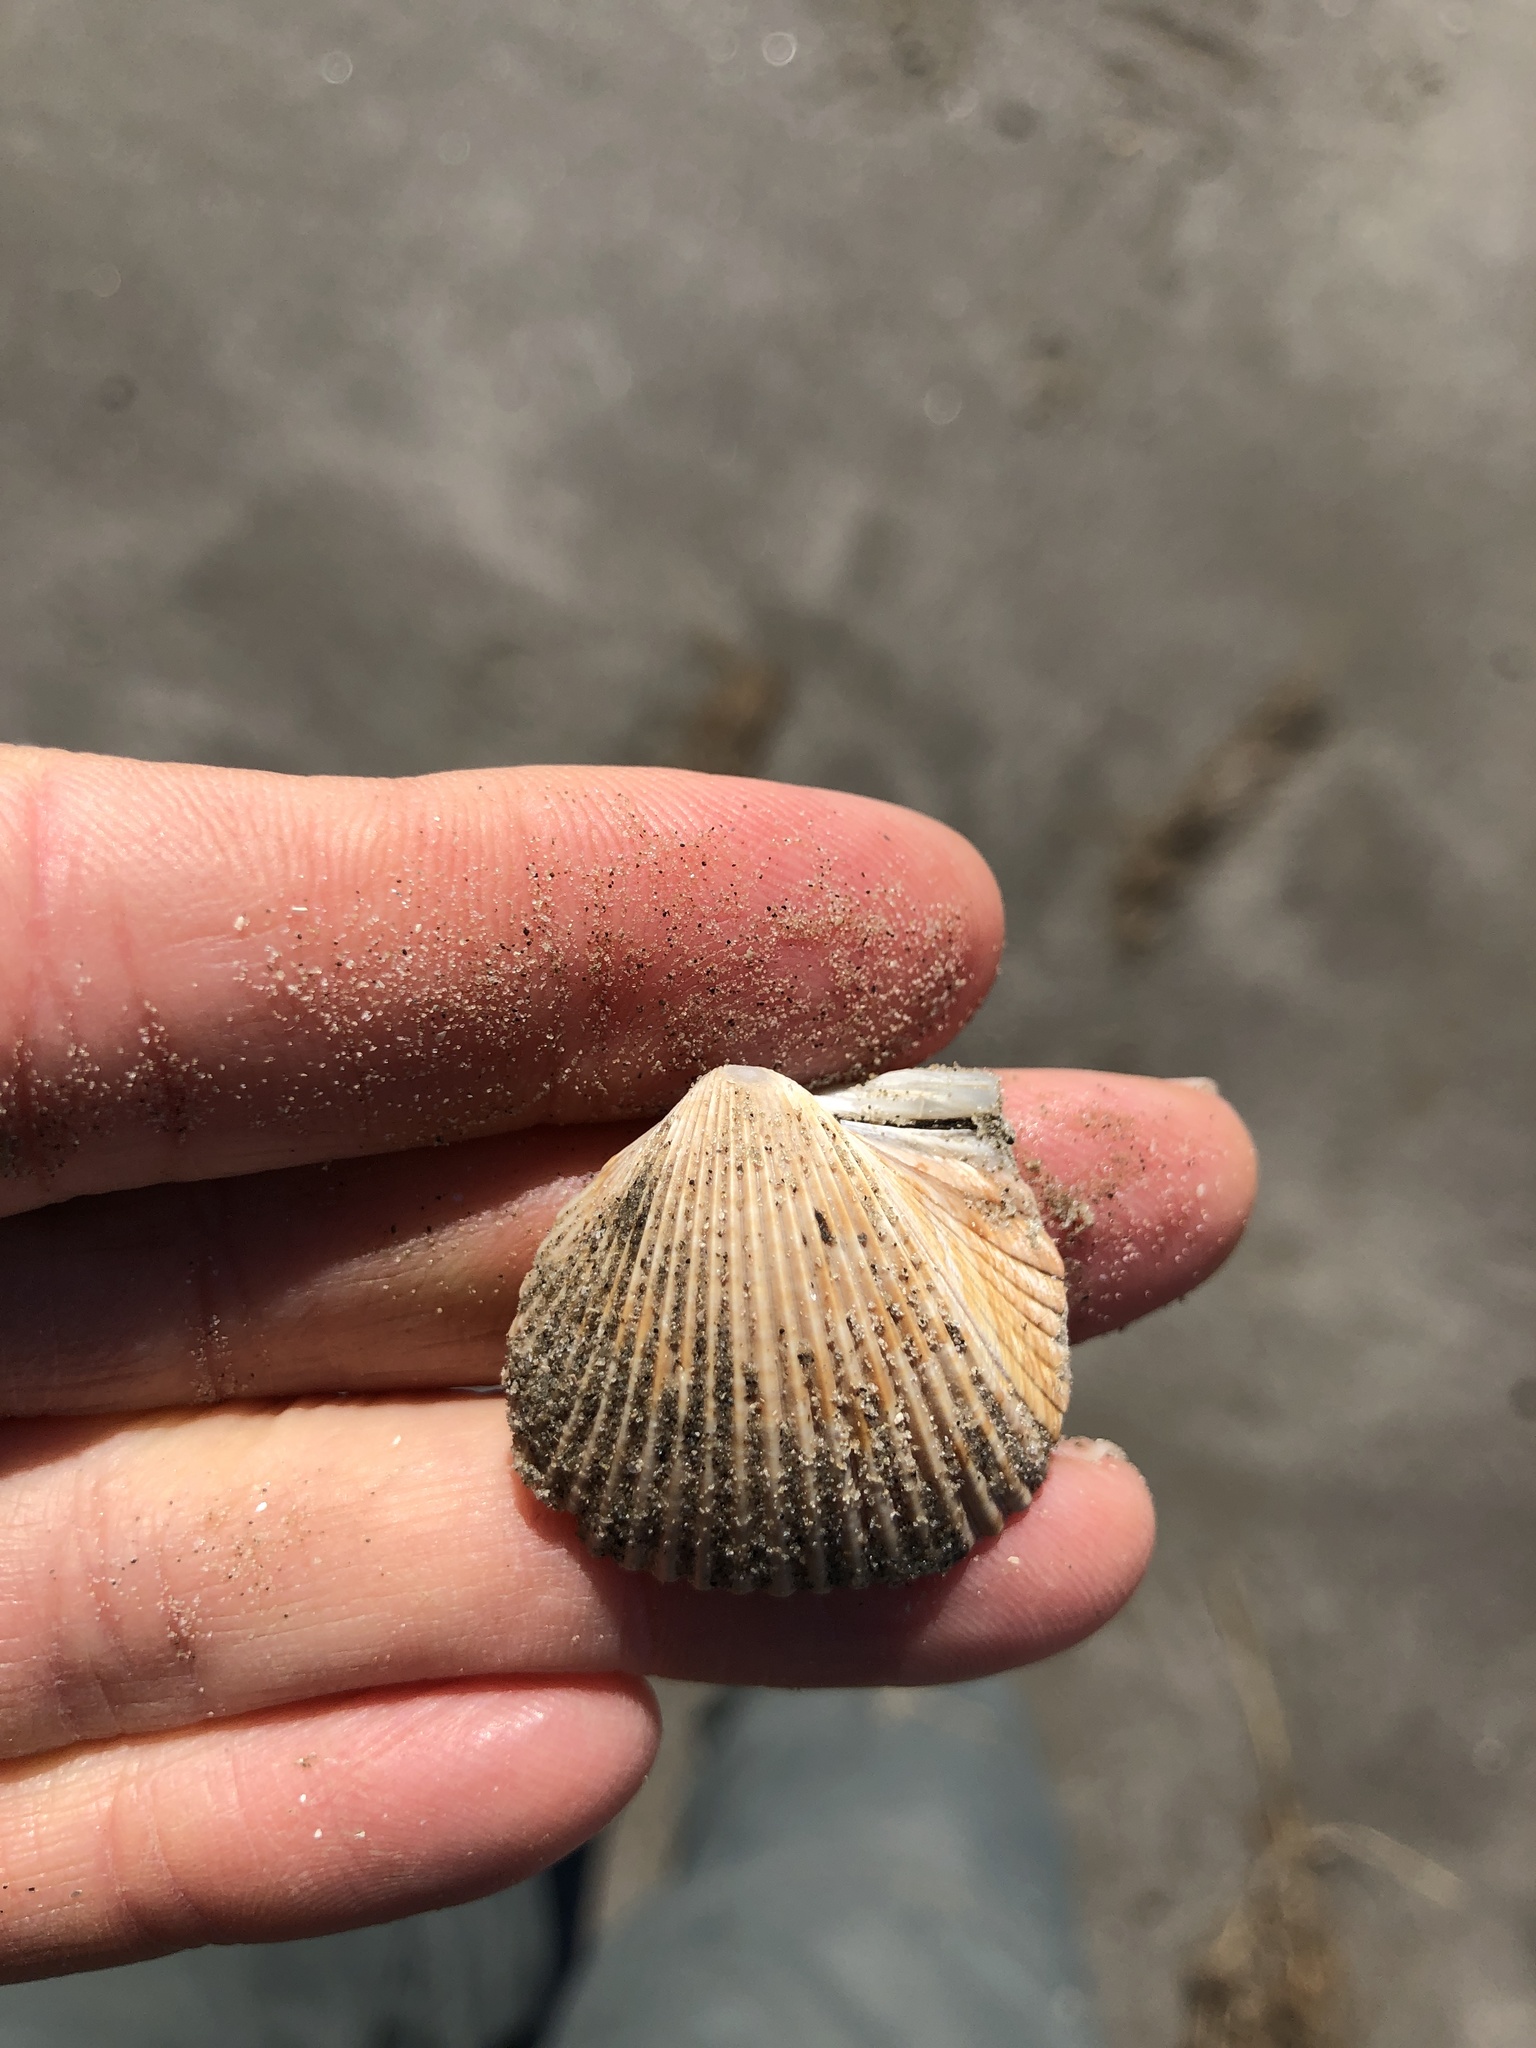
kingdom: Animalia
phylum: Mollusca
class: Bivalvia
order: Cardiida
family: Cardiidae
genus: Dinocardium
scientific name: Dinocardium robustum
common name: Atlantic giant cockle
